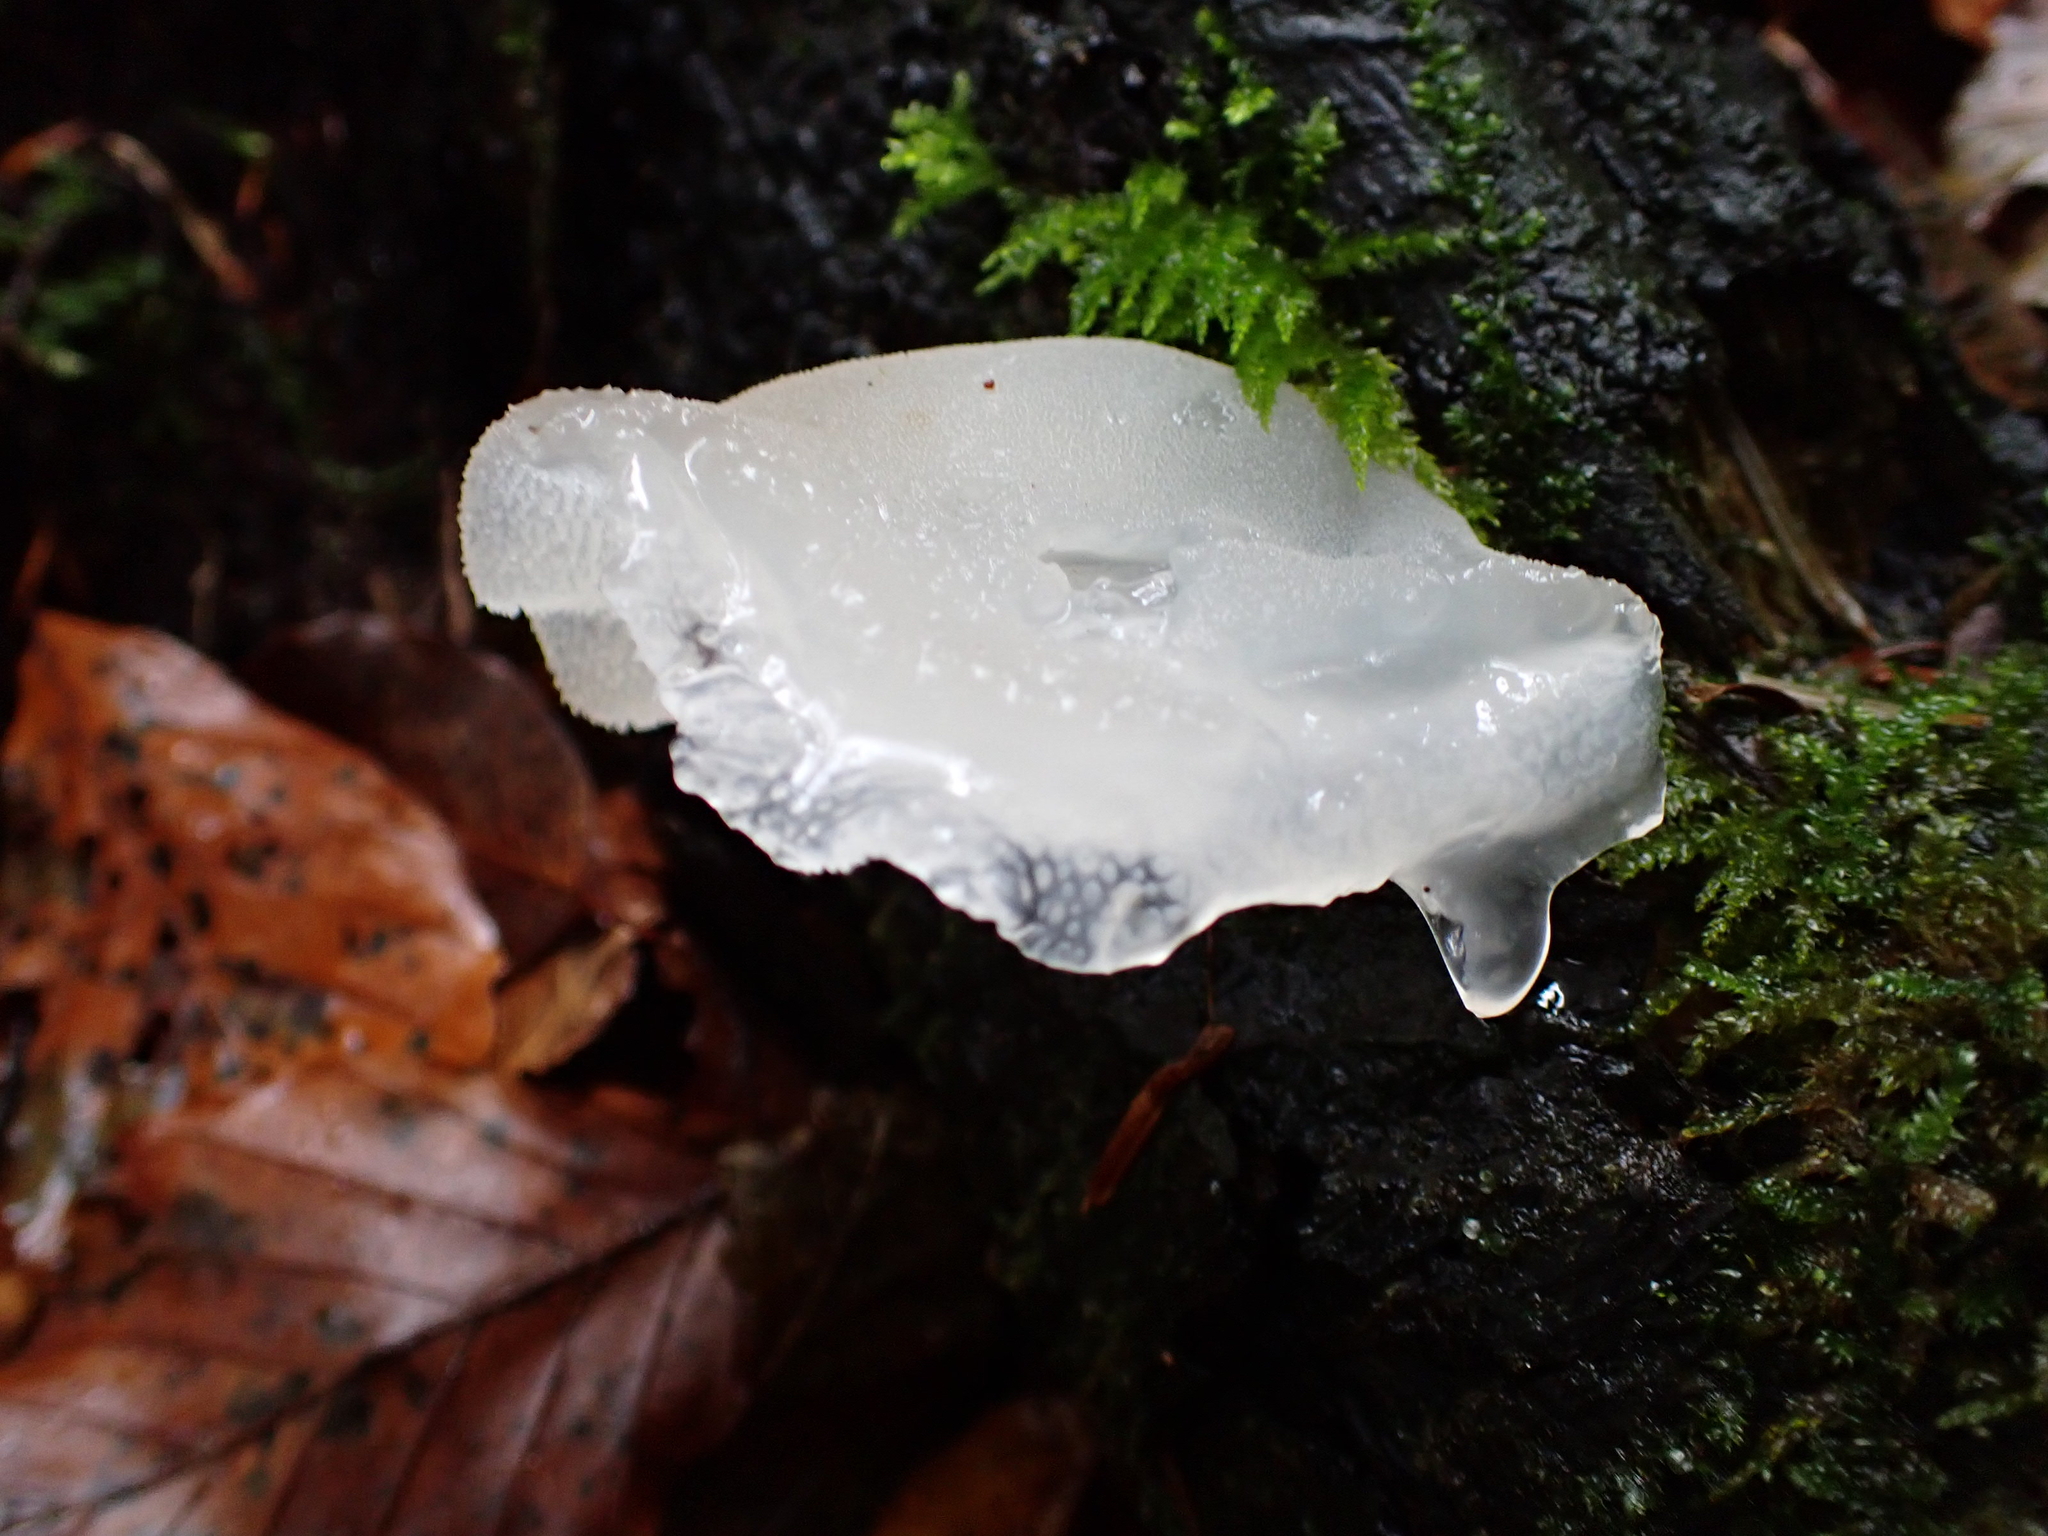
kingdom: Fungi
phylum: Basidiomycota
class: Agaricomycetes
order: Auriculariales
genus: Pseudohydnum
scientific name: Pseudohydnum gelatinosum
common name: Jelly tongue
